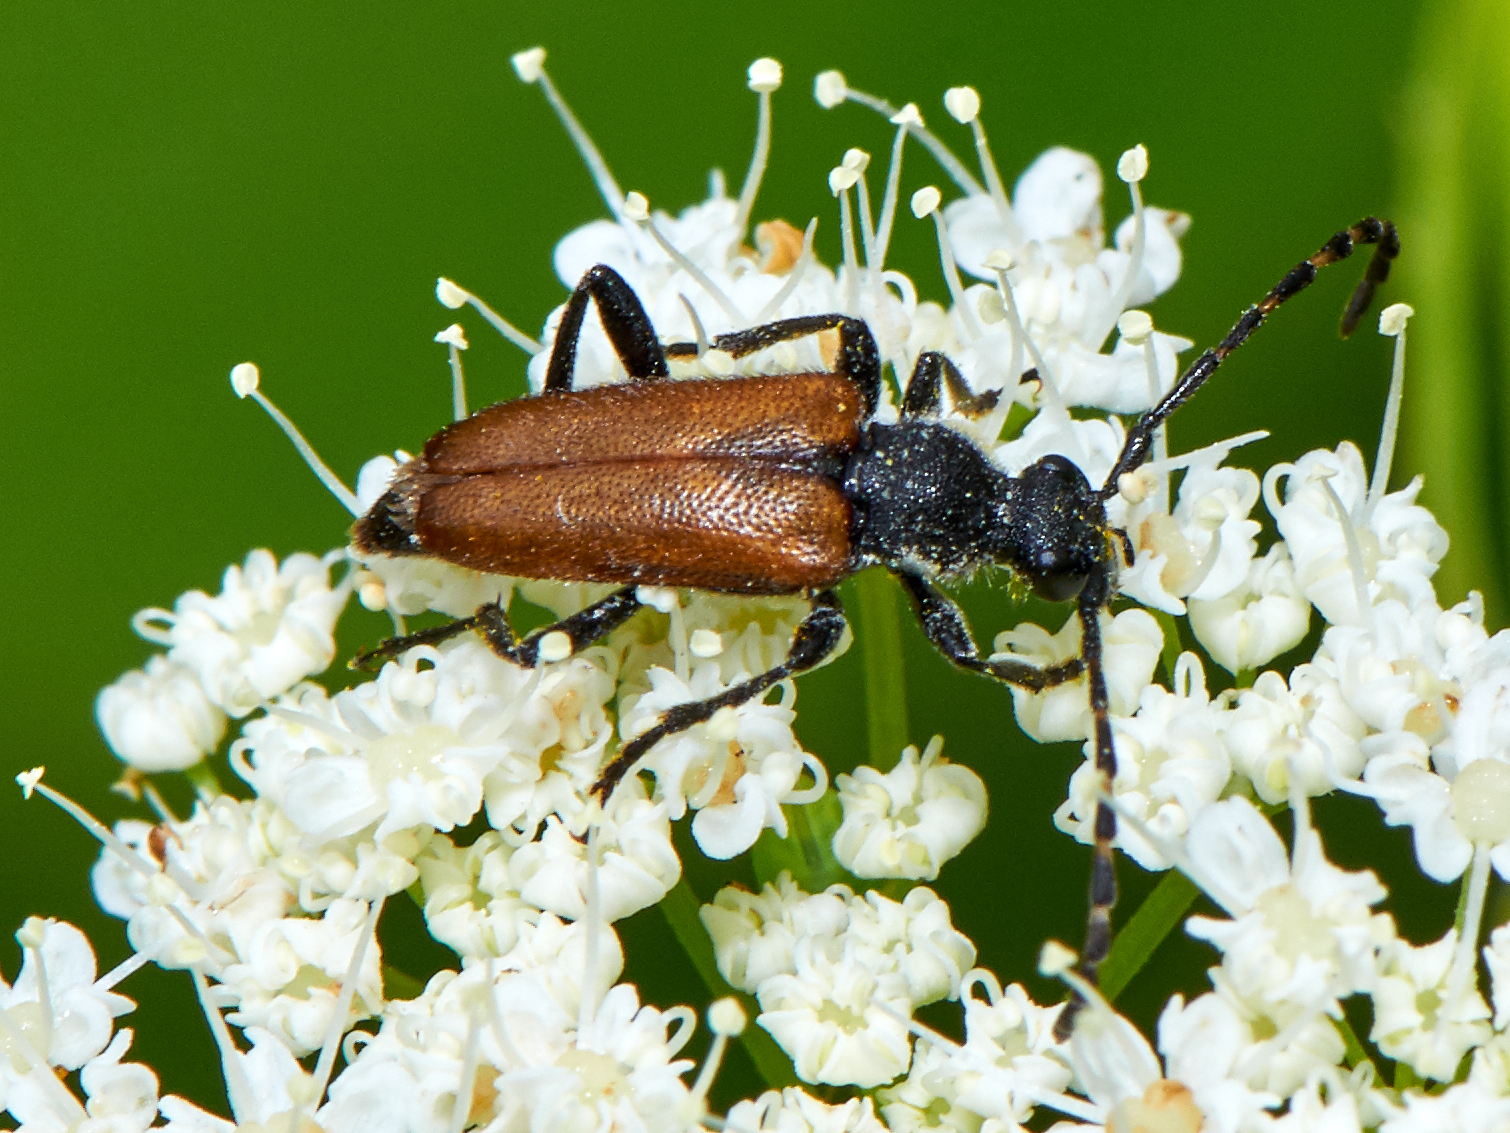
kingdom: Animalia
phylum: Arthropoda
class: Insecta
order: Coleoptera
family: Cerambycidae
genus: Paracorymbia
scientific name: Paracorymbia maculicornis
